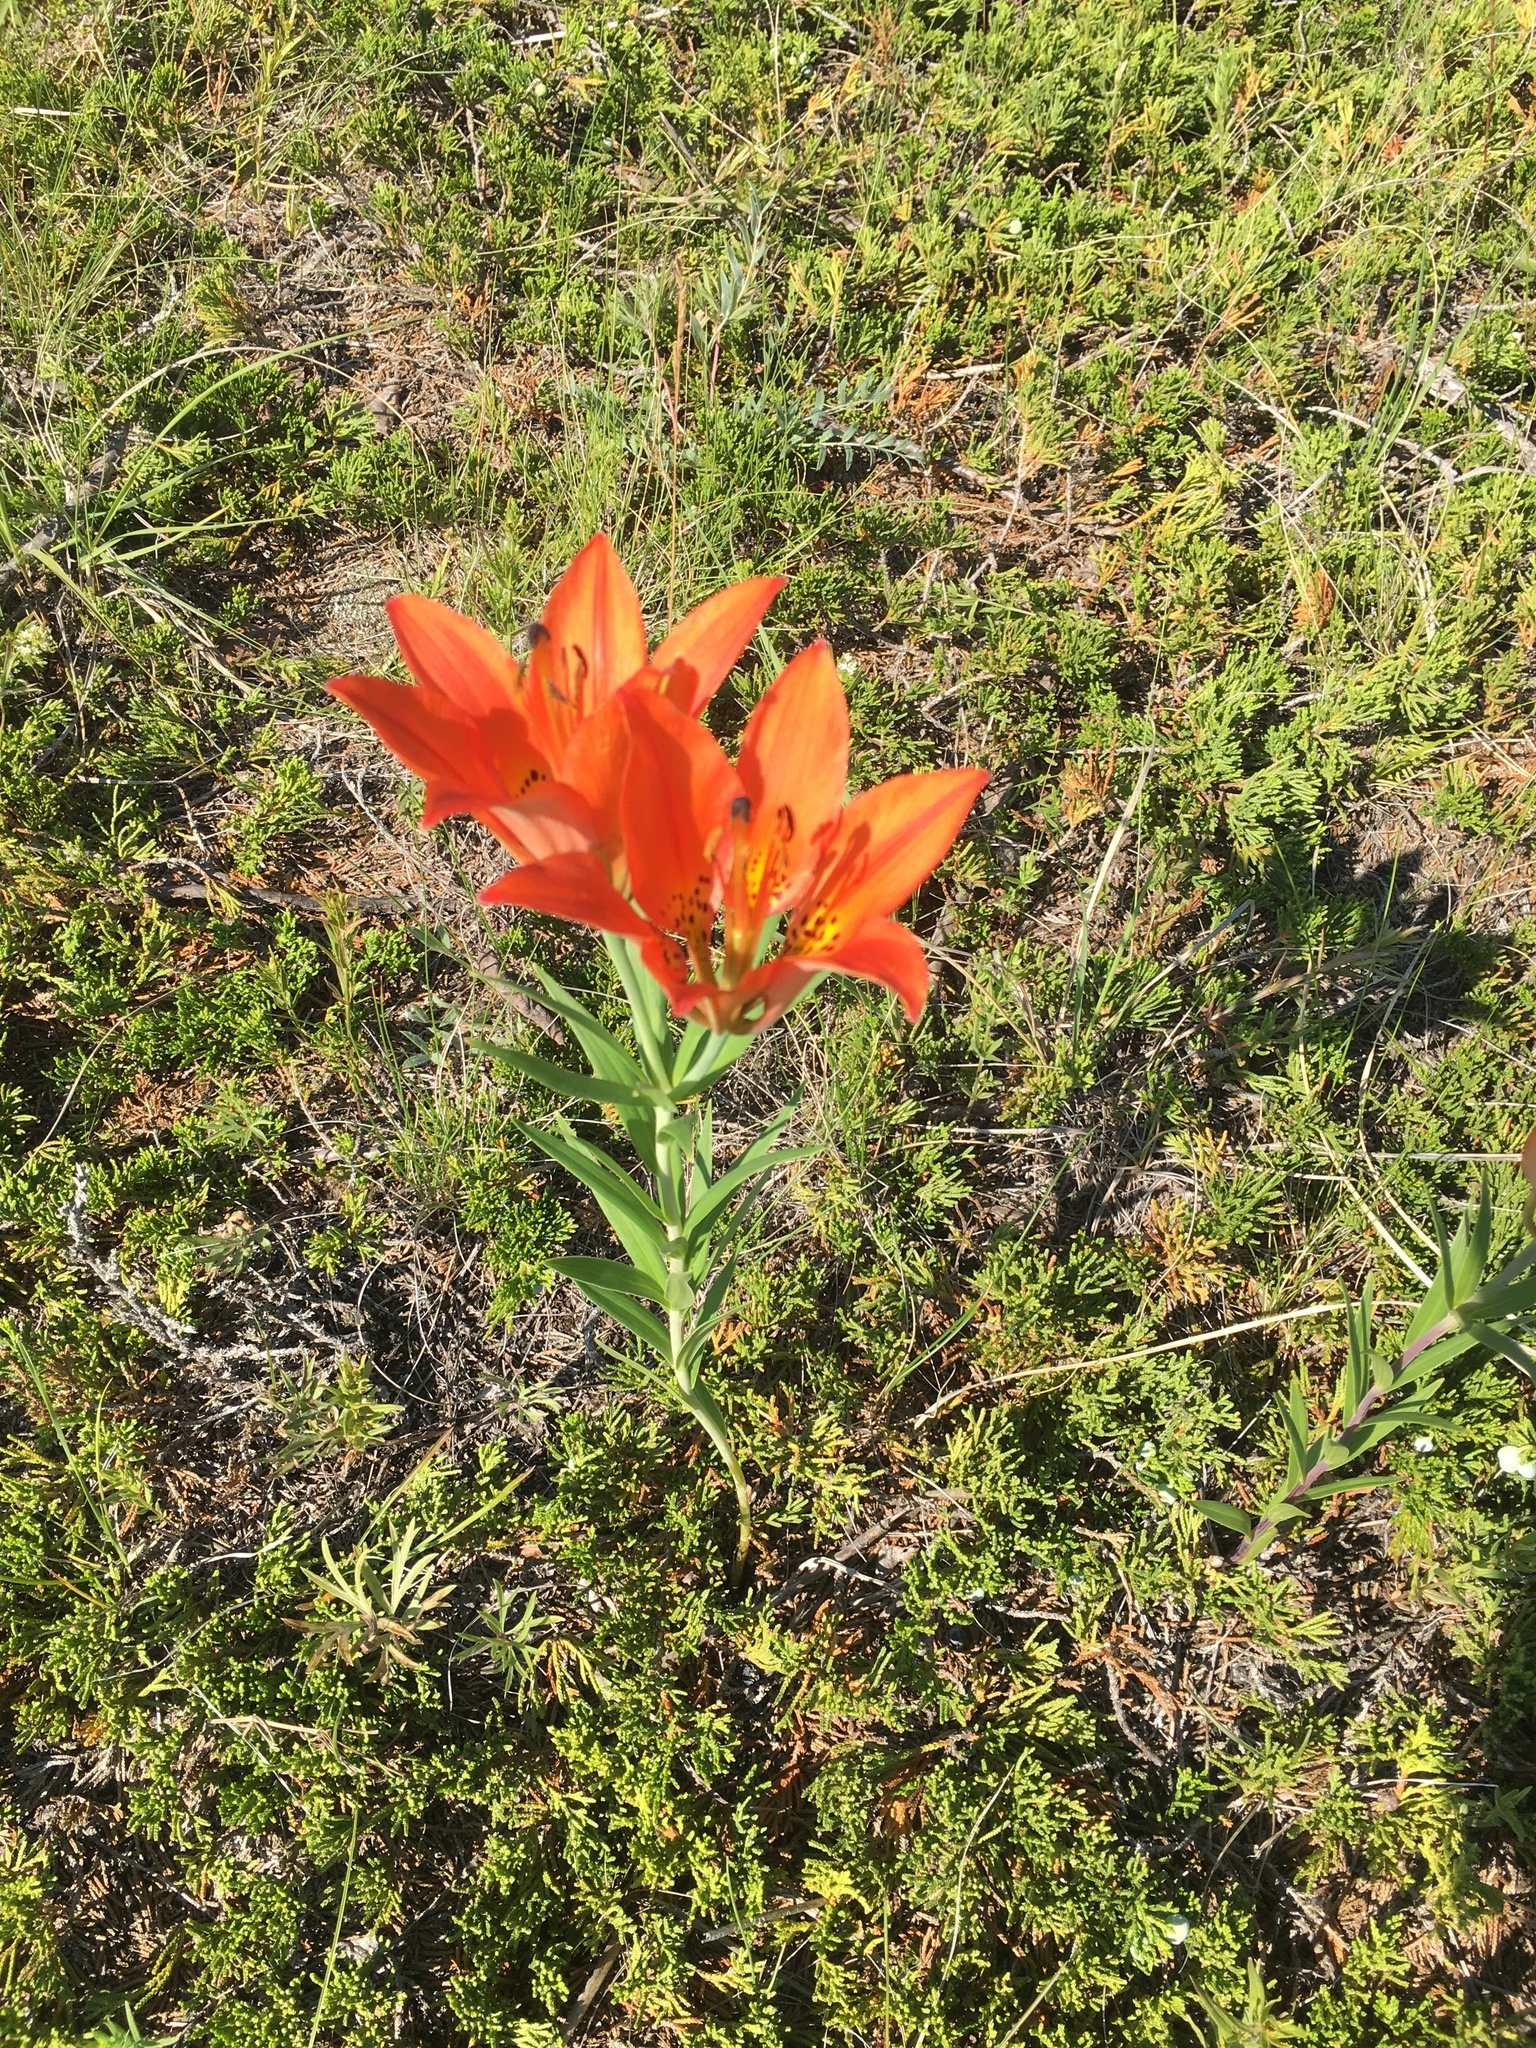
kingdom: Plantae
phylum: Tracheophyta
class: Liliopsida
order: Liliales
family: Liliaceae
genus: Lilium
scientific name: Lilium philadelphicum
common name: Red lily
